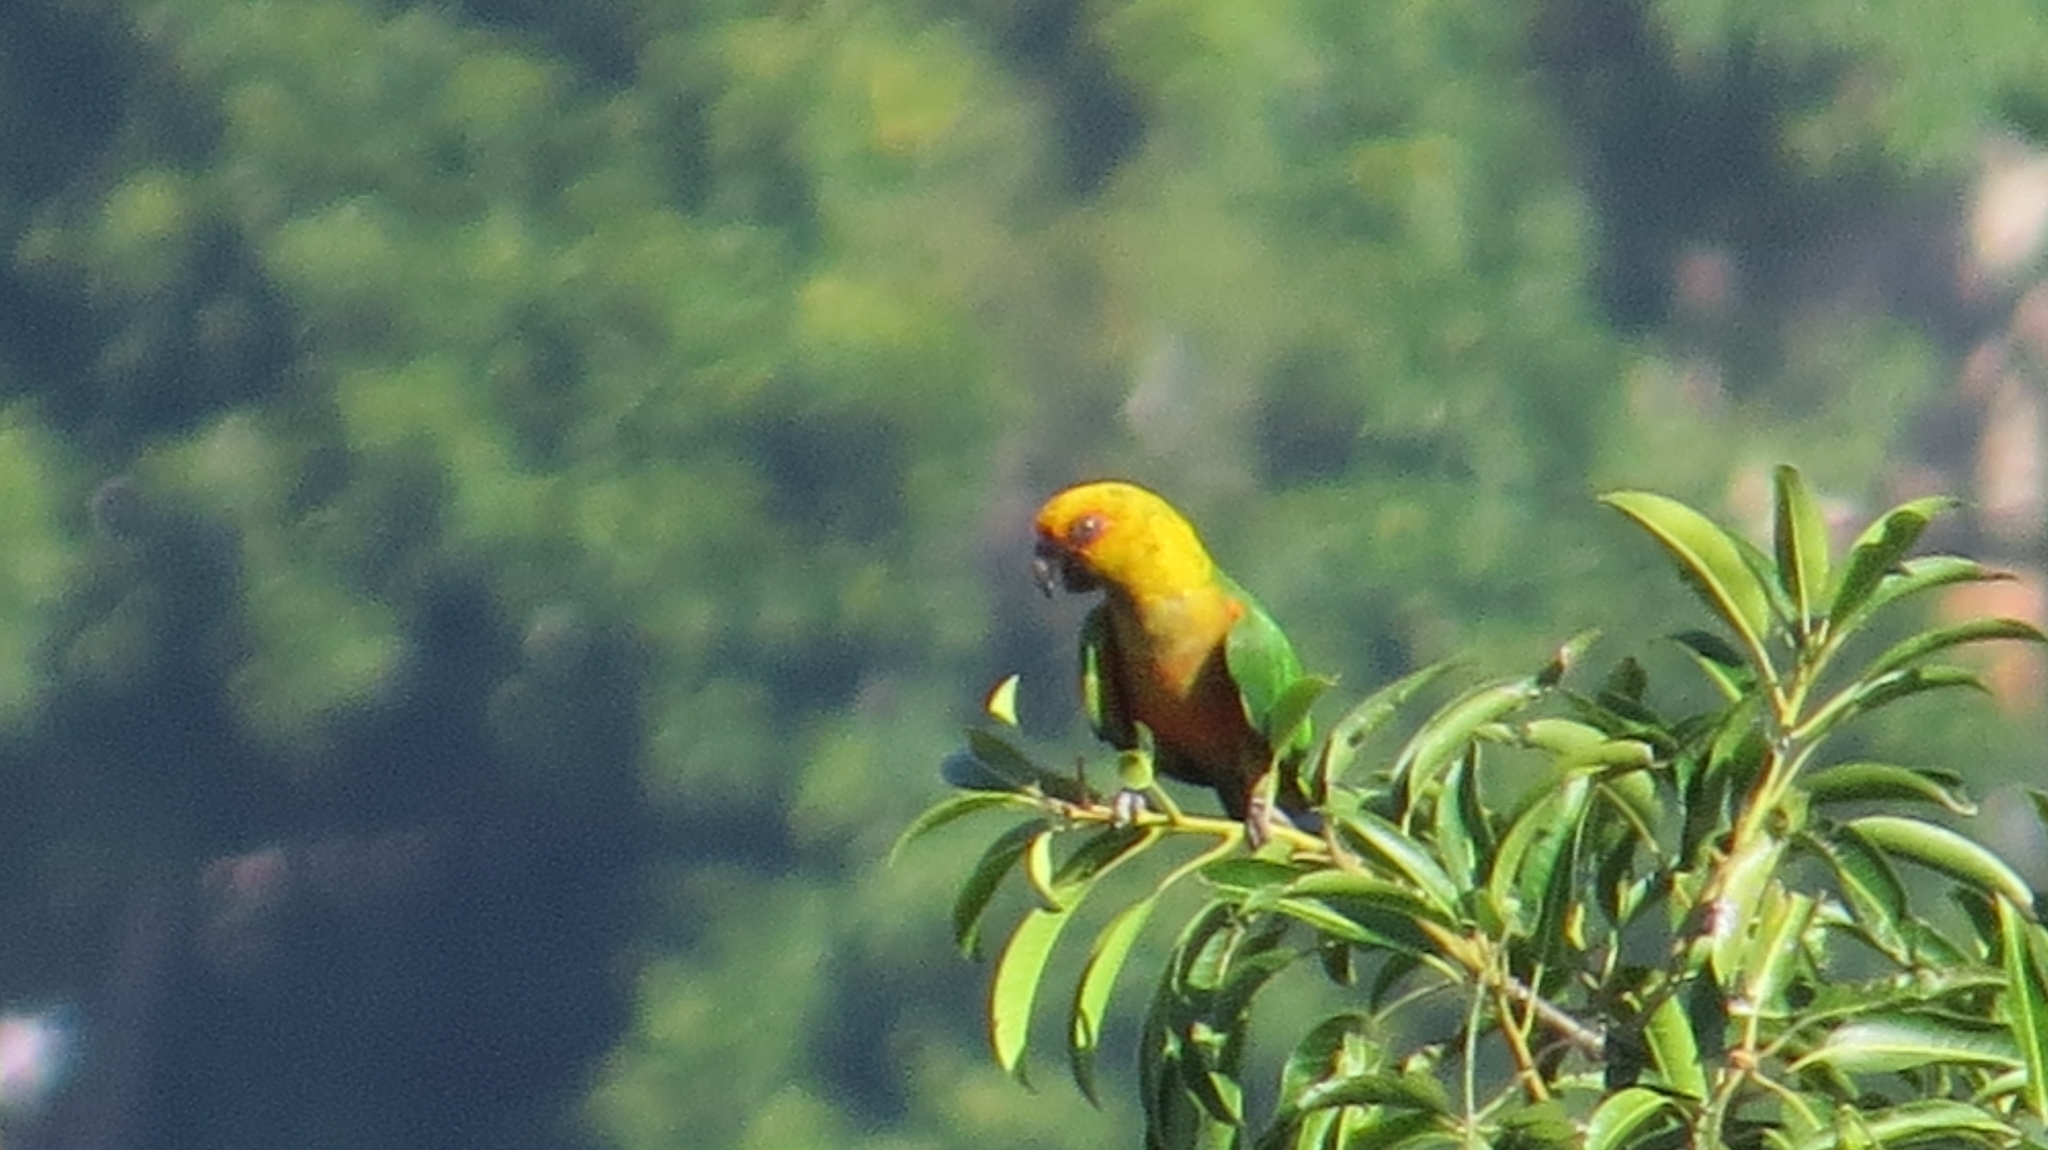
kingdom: Animalia
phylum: Chordata
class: Aves
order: Psittaciformes
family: Psittacidae
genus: Aratinga
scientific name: Aratinga jandaya
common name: Jandaya parakeet
